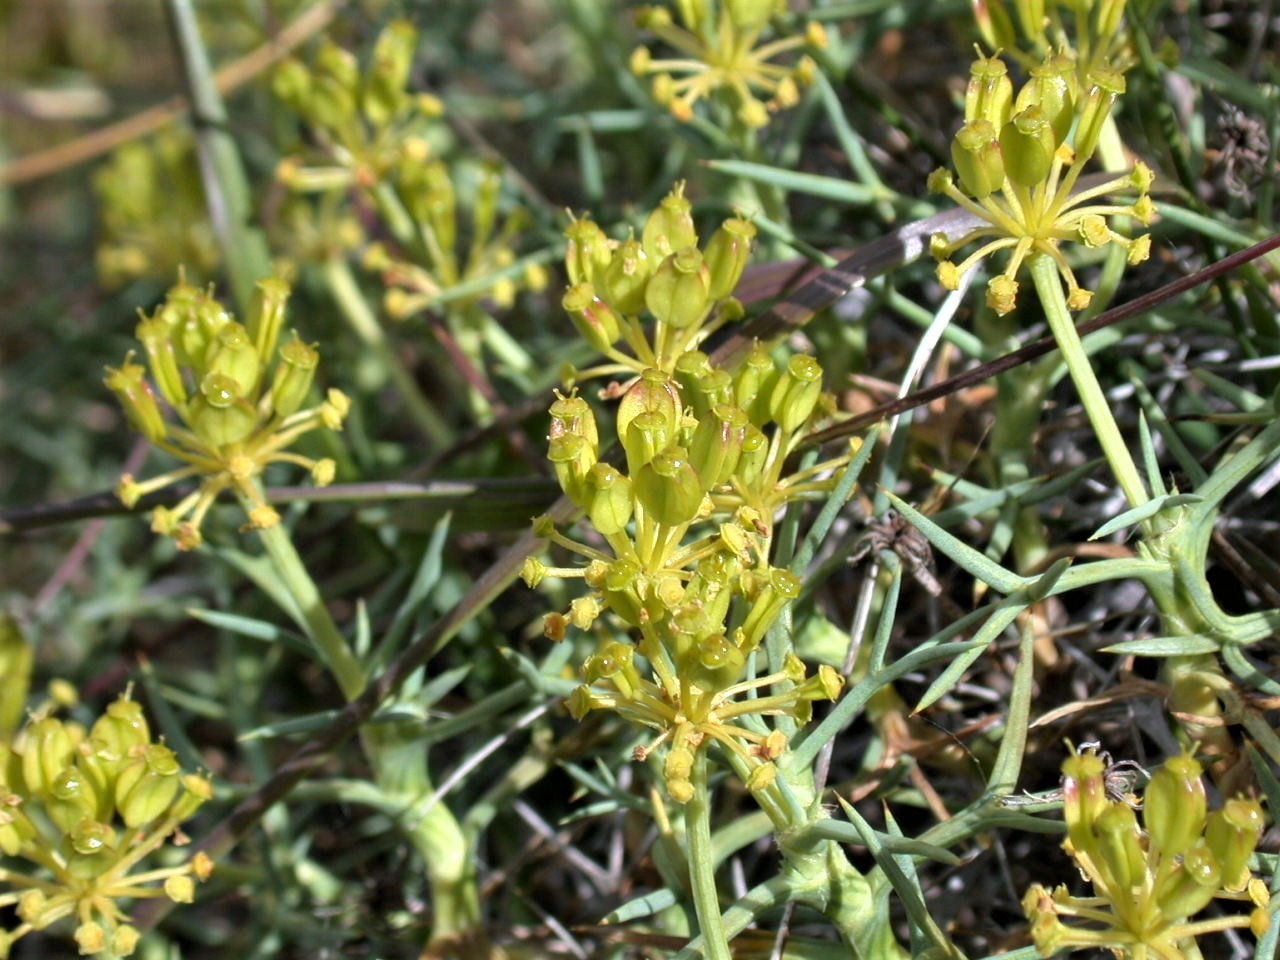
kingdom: Plantae
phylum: Tracheophyta
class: Magnoliopsida
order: Apiales
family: Apiaceae
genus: Azorella
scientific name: Azorella prolifera
